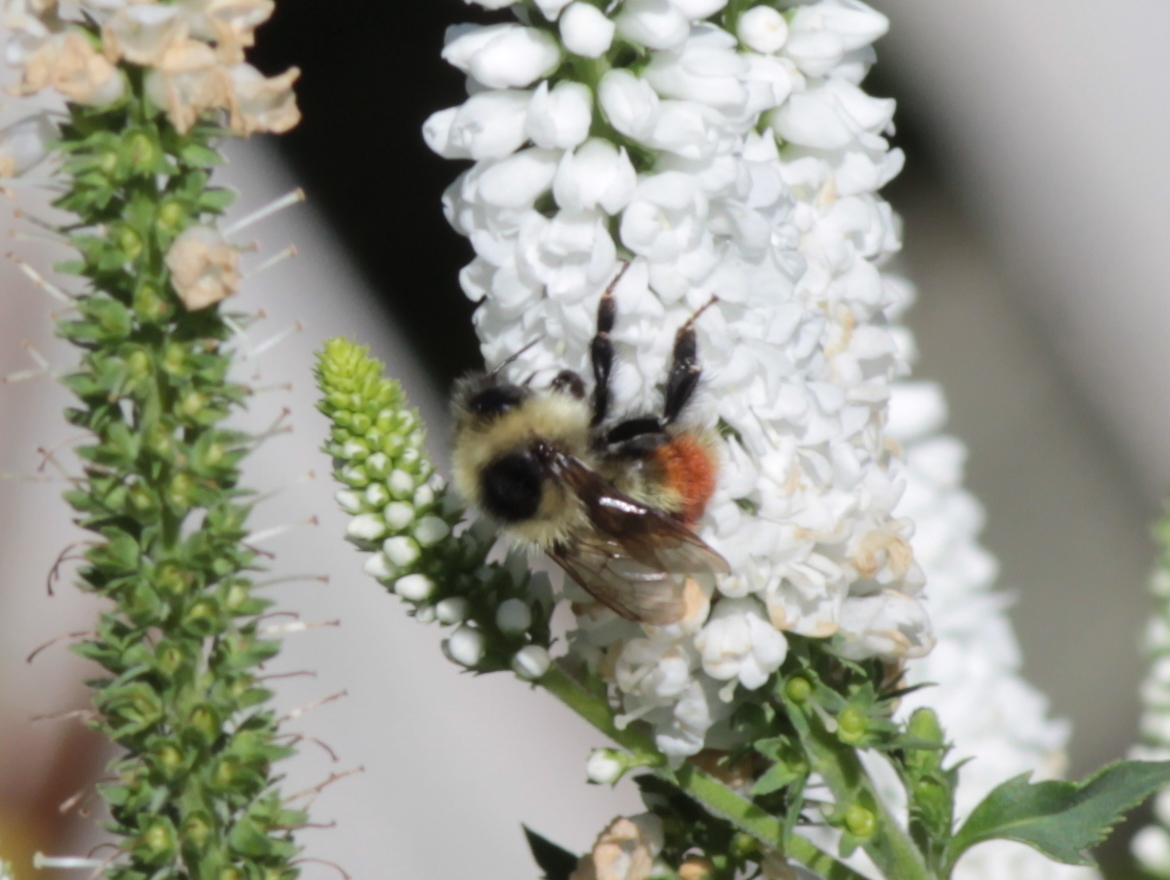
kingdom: Animalia
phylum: Arthropoda
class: Insecta
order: Hymenoptera
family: Apidae
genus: Bombus
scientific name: Bombus rufocinctus
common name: Red-belted bumble bee
